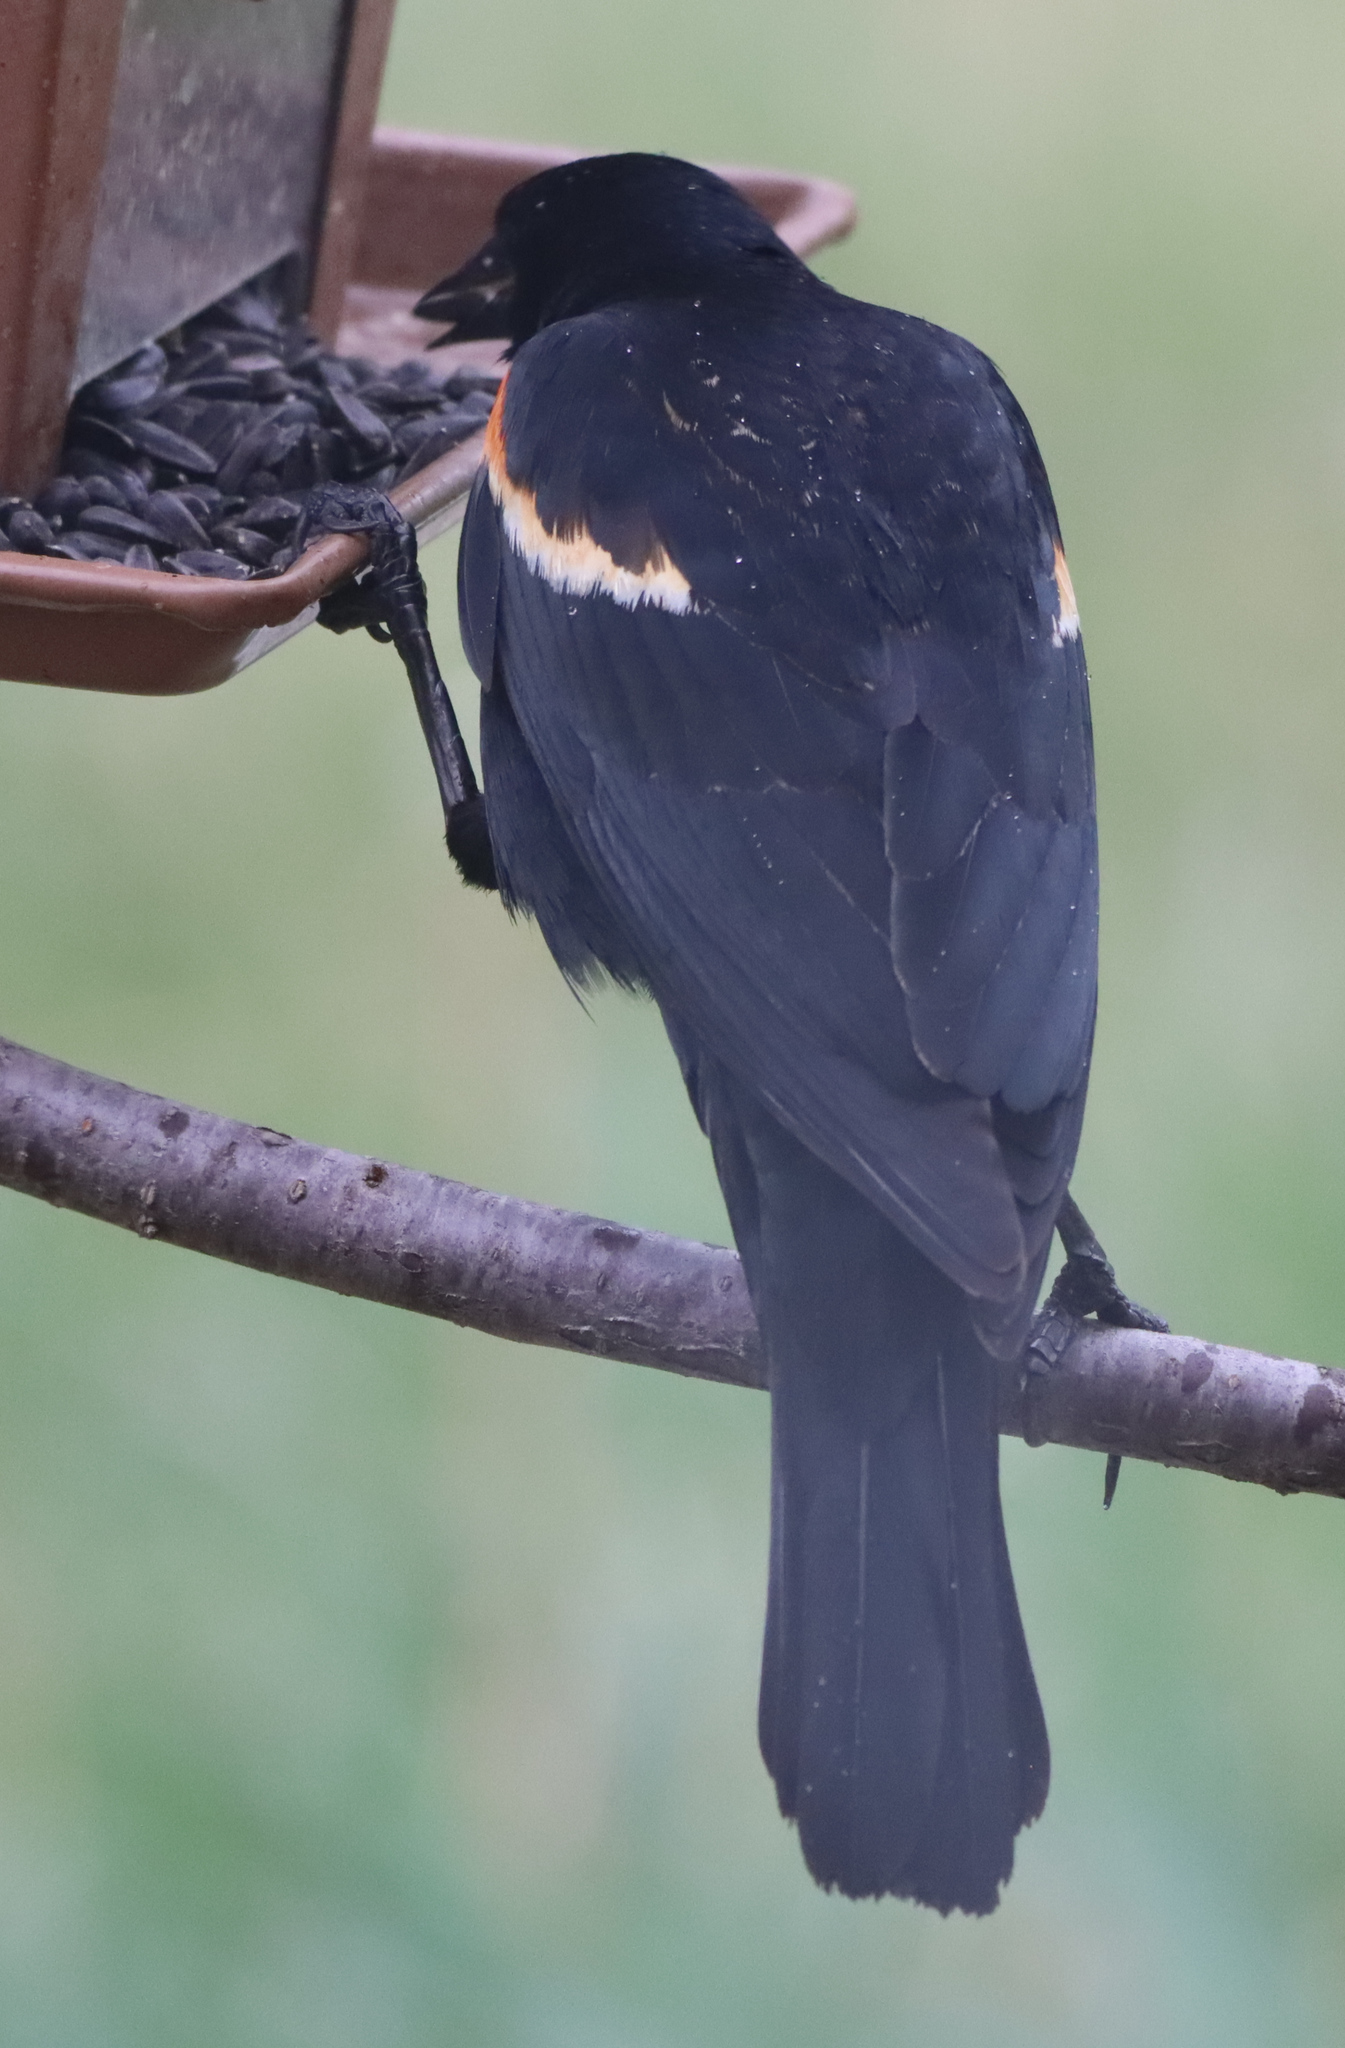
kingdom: Animalia
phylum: Chordata
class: Aves
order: Passeriformes
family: Icteridae
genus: Agelaius
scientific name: Agelaius phoeniceus
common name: Red-winged blackbird
